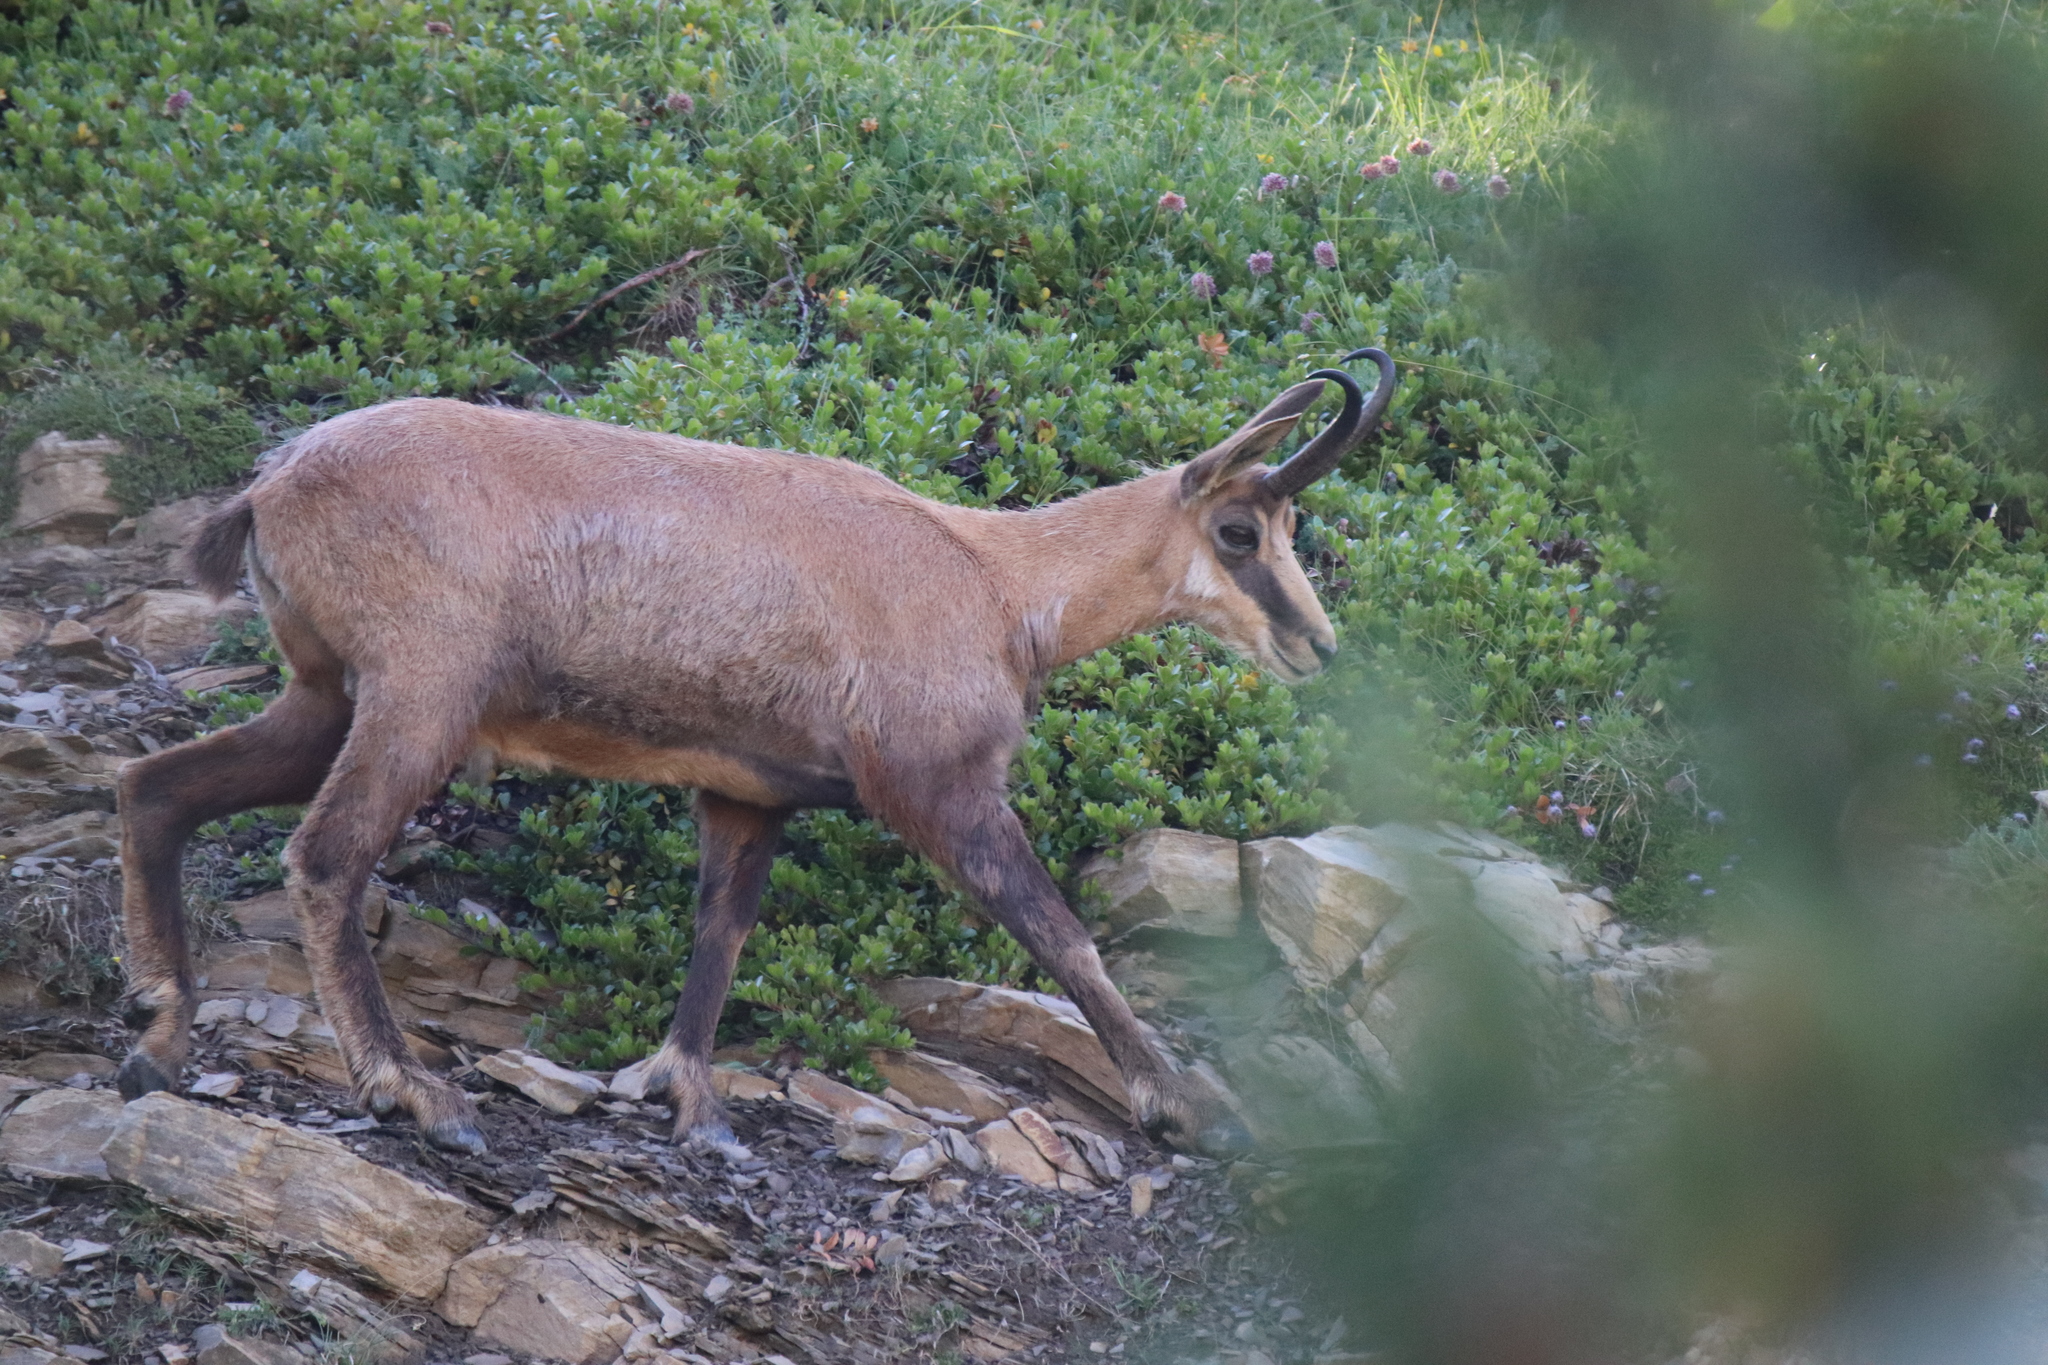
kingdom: Animalia
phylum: Chordata
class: Mammalia
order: Artiodactyla
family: Bovidae
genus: Rupicapra
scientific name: Rupicapra rupicapra
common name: Chamois
